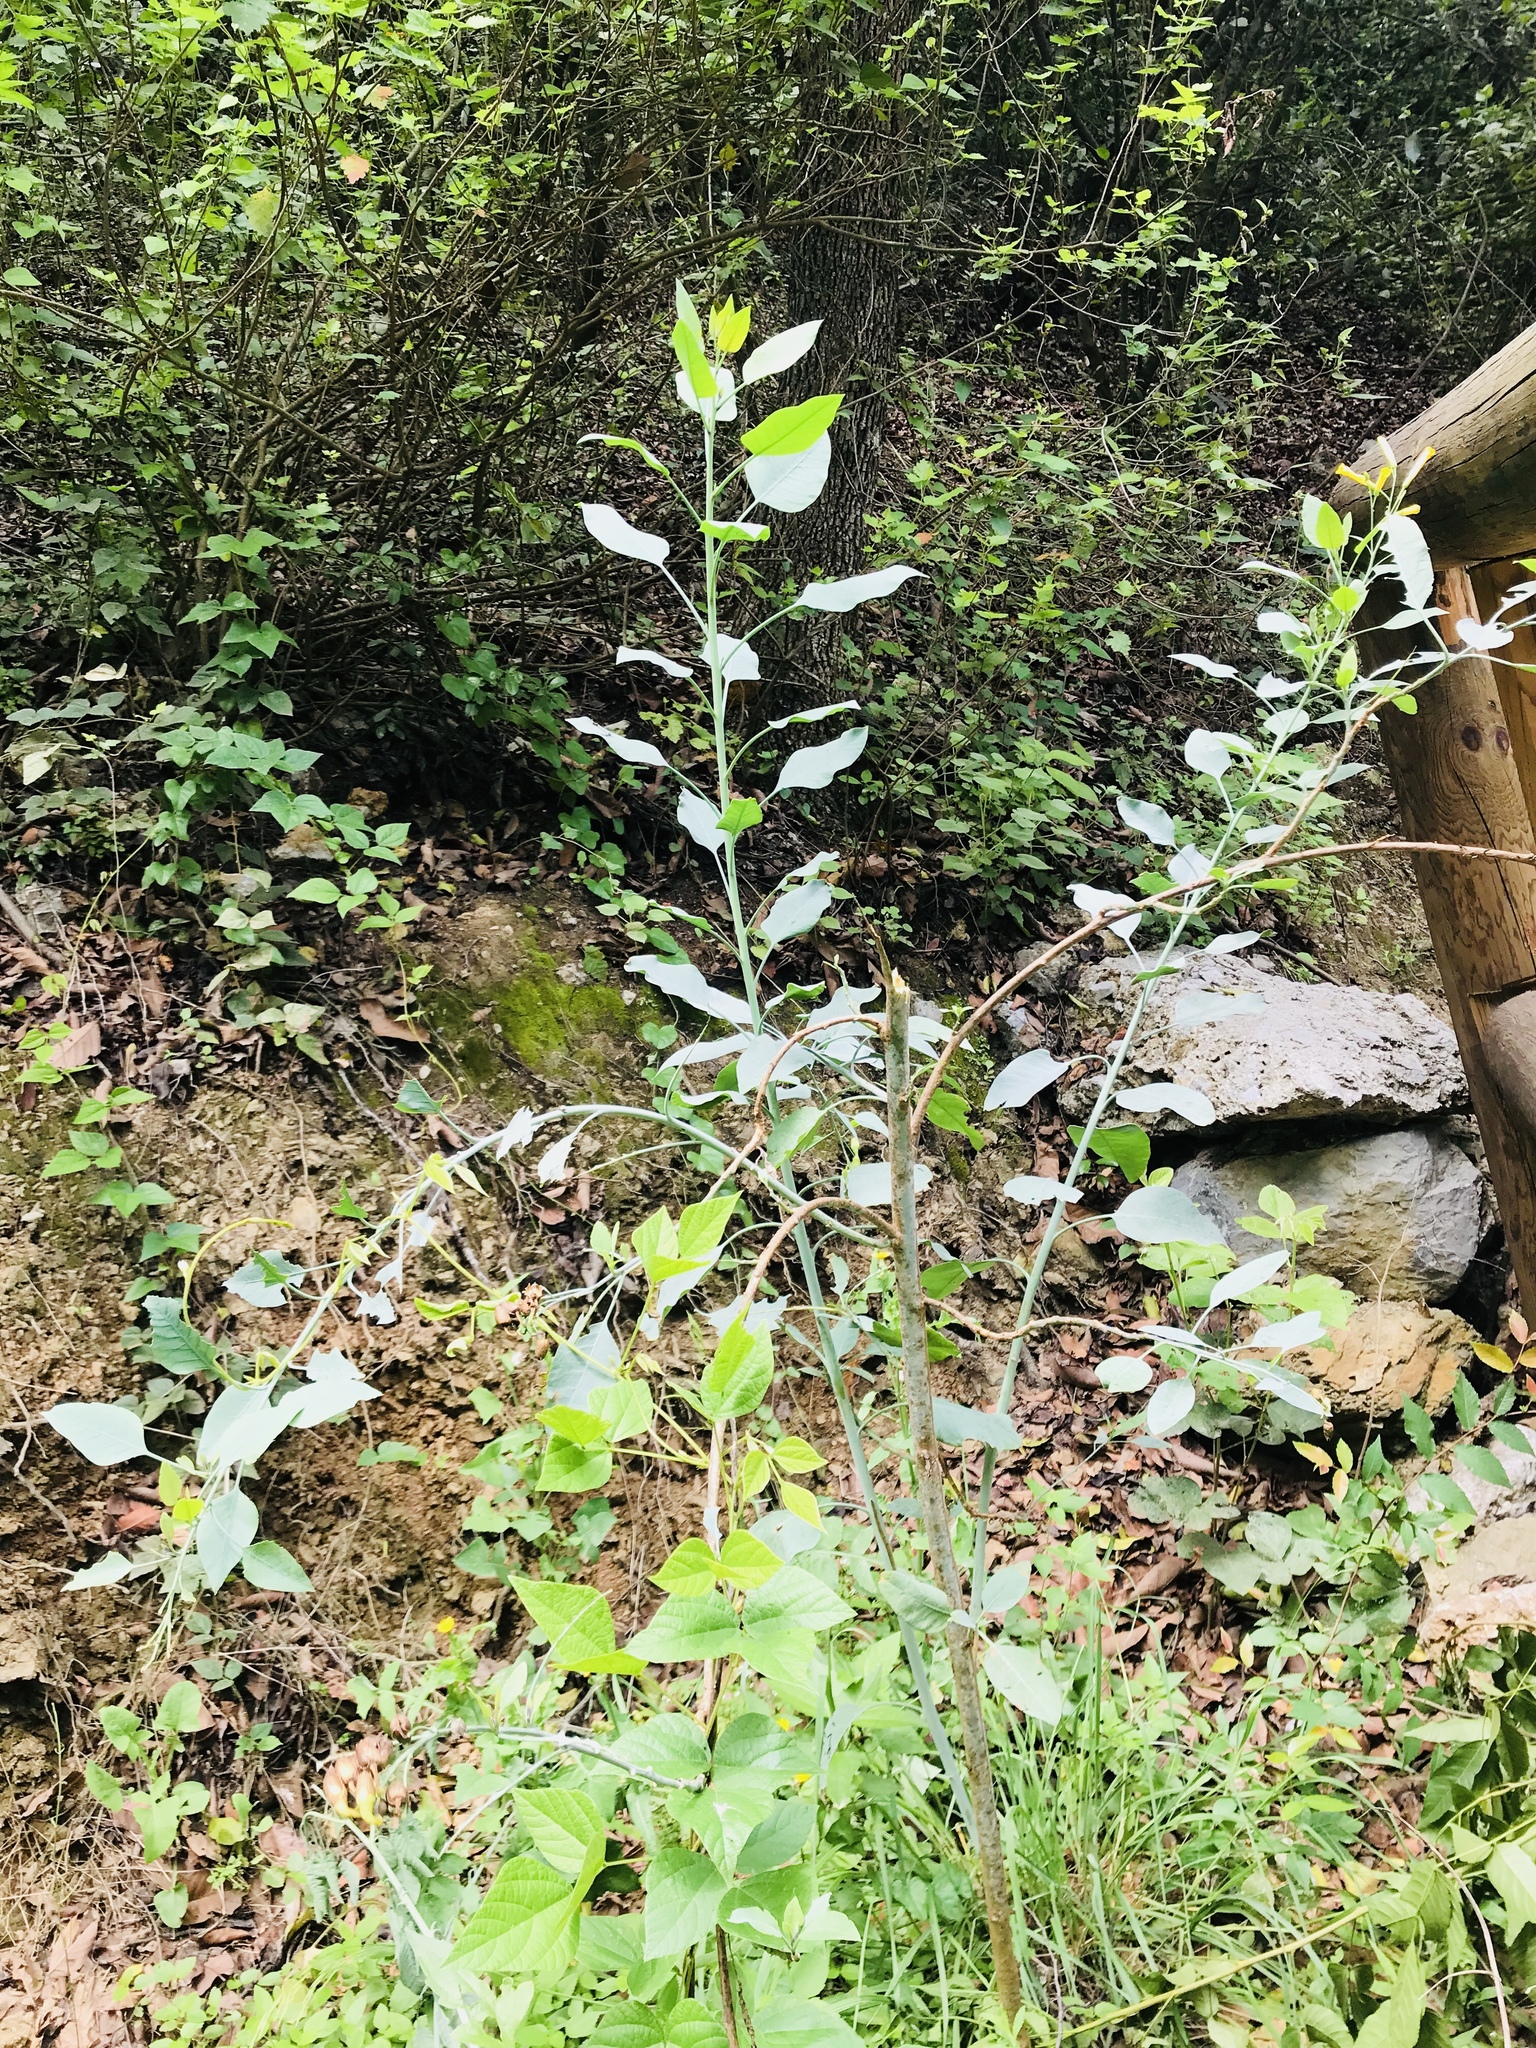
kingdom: Plantae
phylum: Tracheophyta
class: Magnoliopsida
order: Solanales
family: Solanaceae
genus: Nicotiana
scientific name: Nicotiana glauca
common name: Tree tobacco
